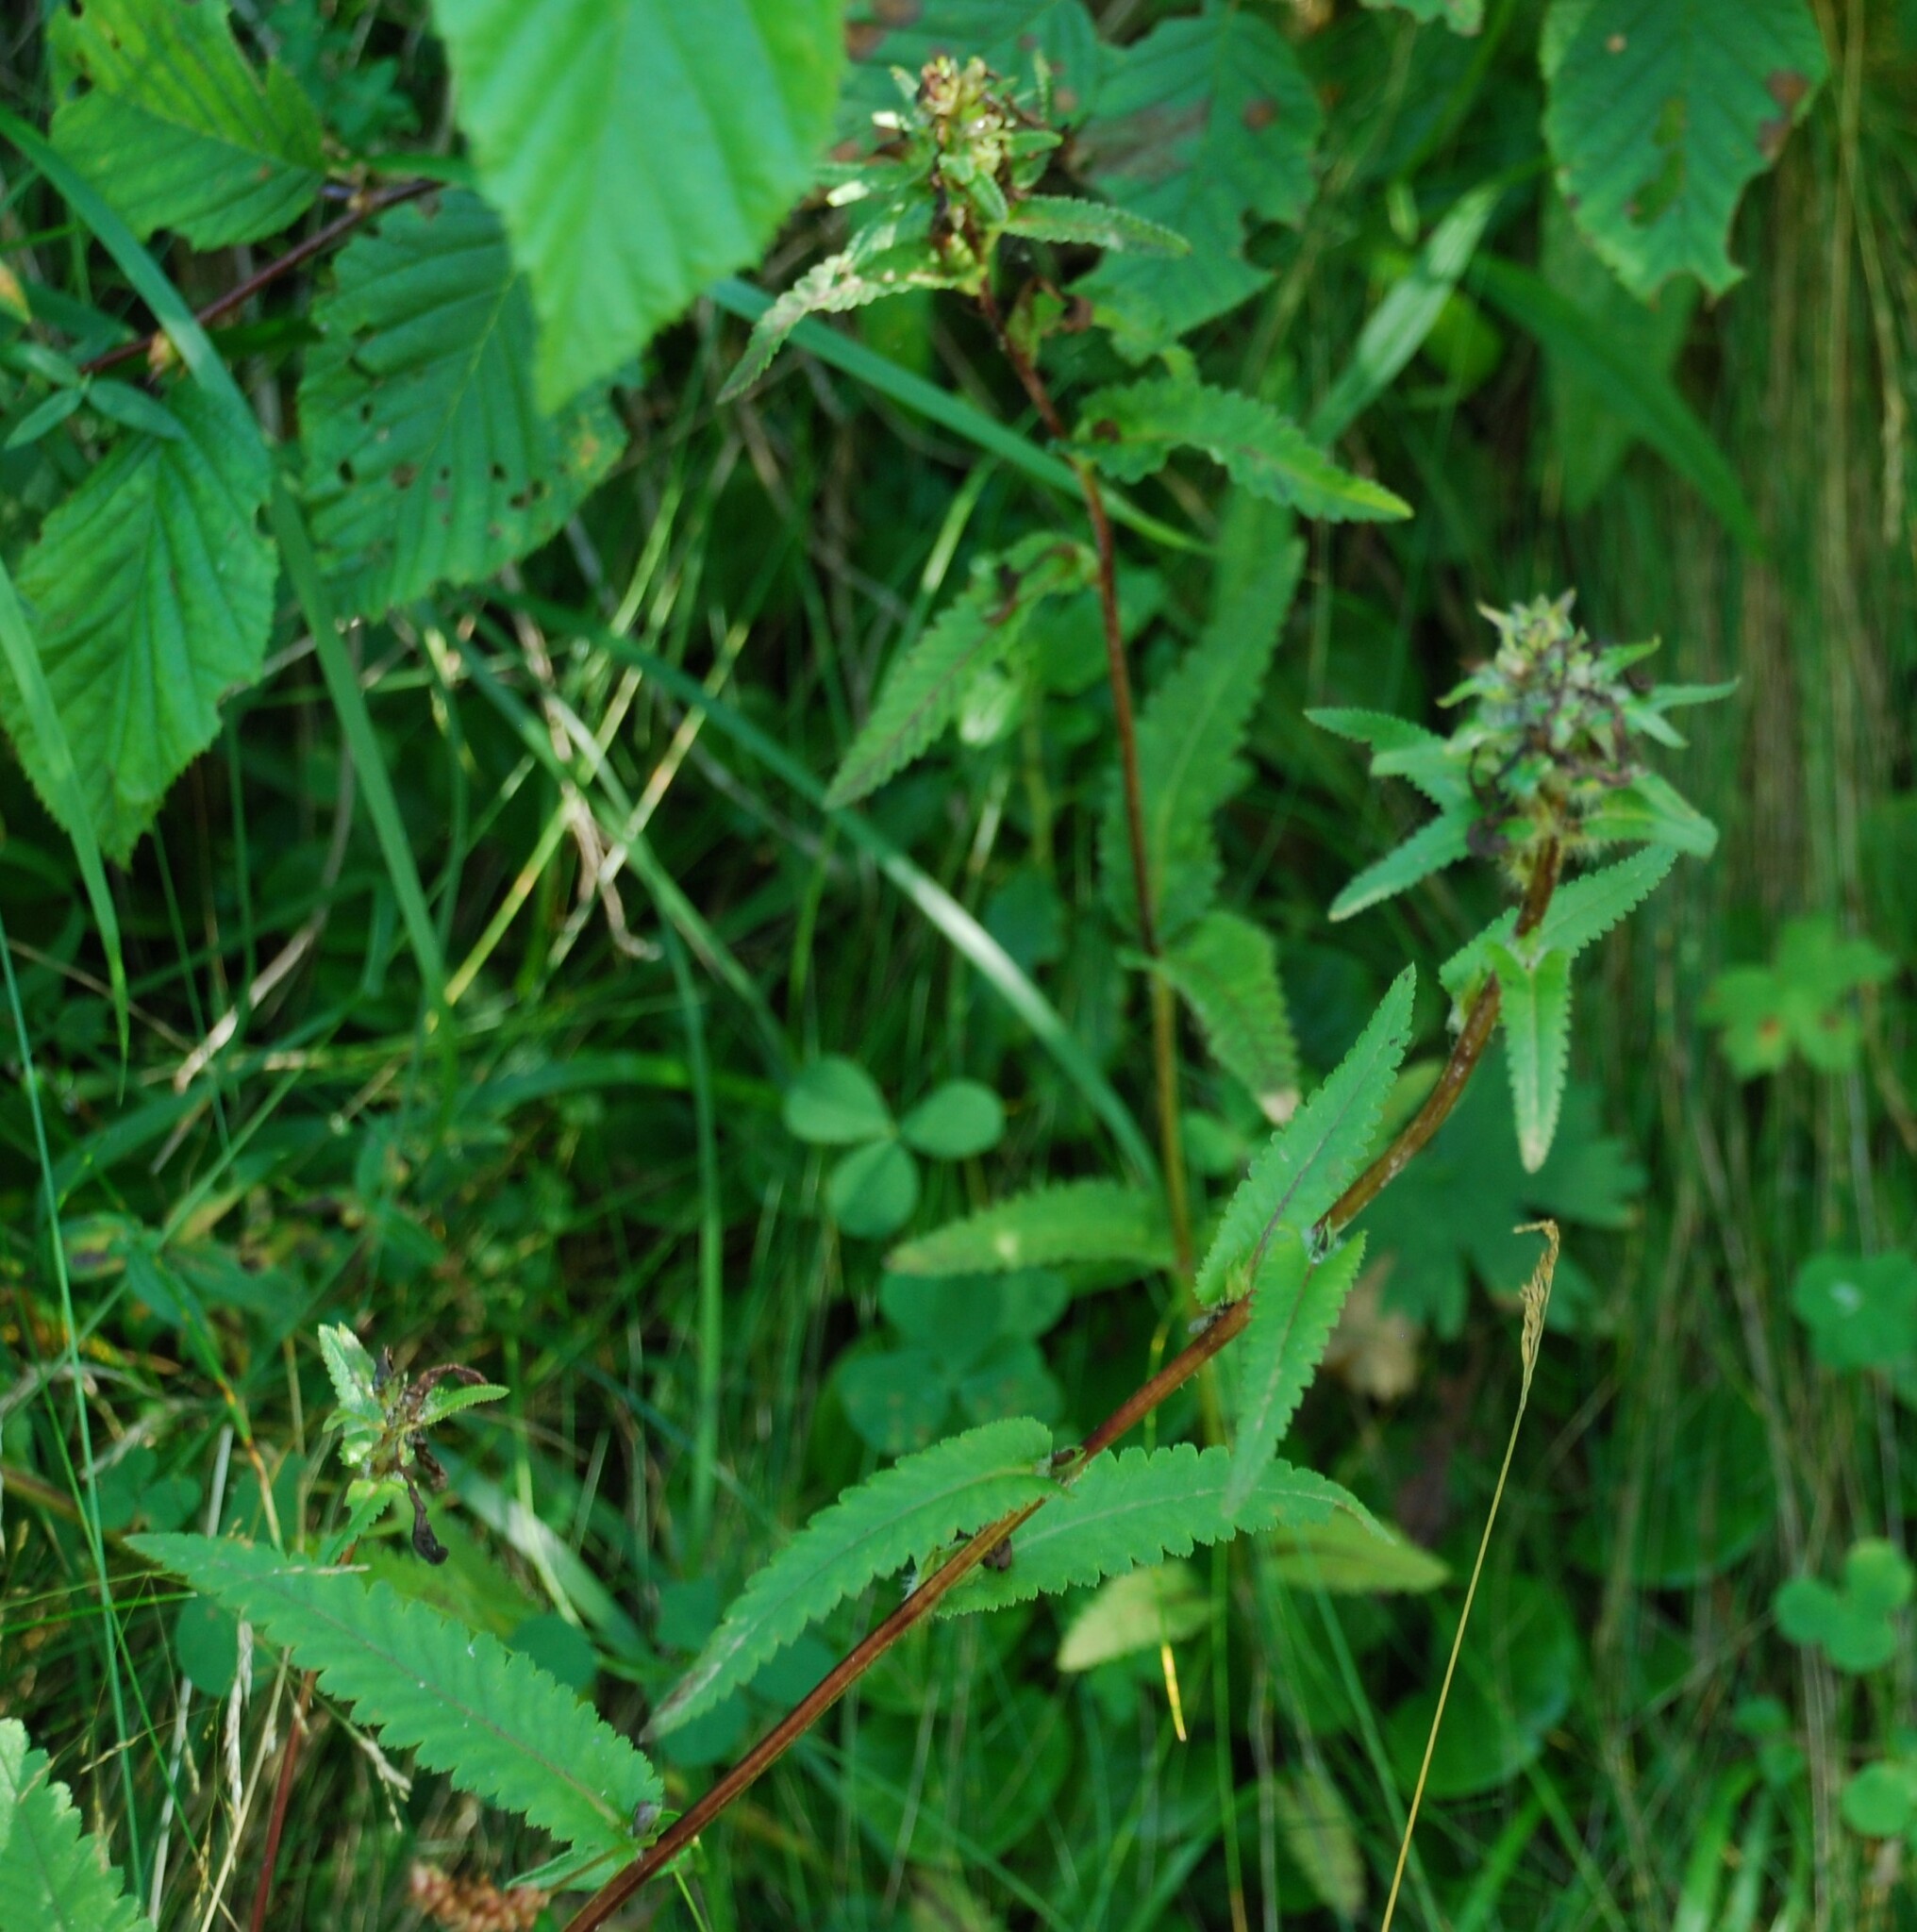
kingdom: Plantae
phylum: Tracheophyta
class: Magnoliopsida
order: Lamiales
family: Orobanchaceae
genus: Pedicularis
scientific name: Pedicularis resupinata
